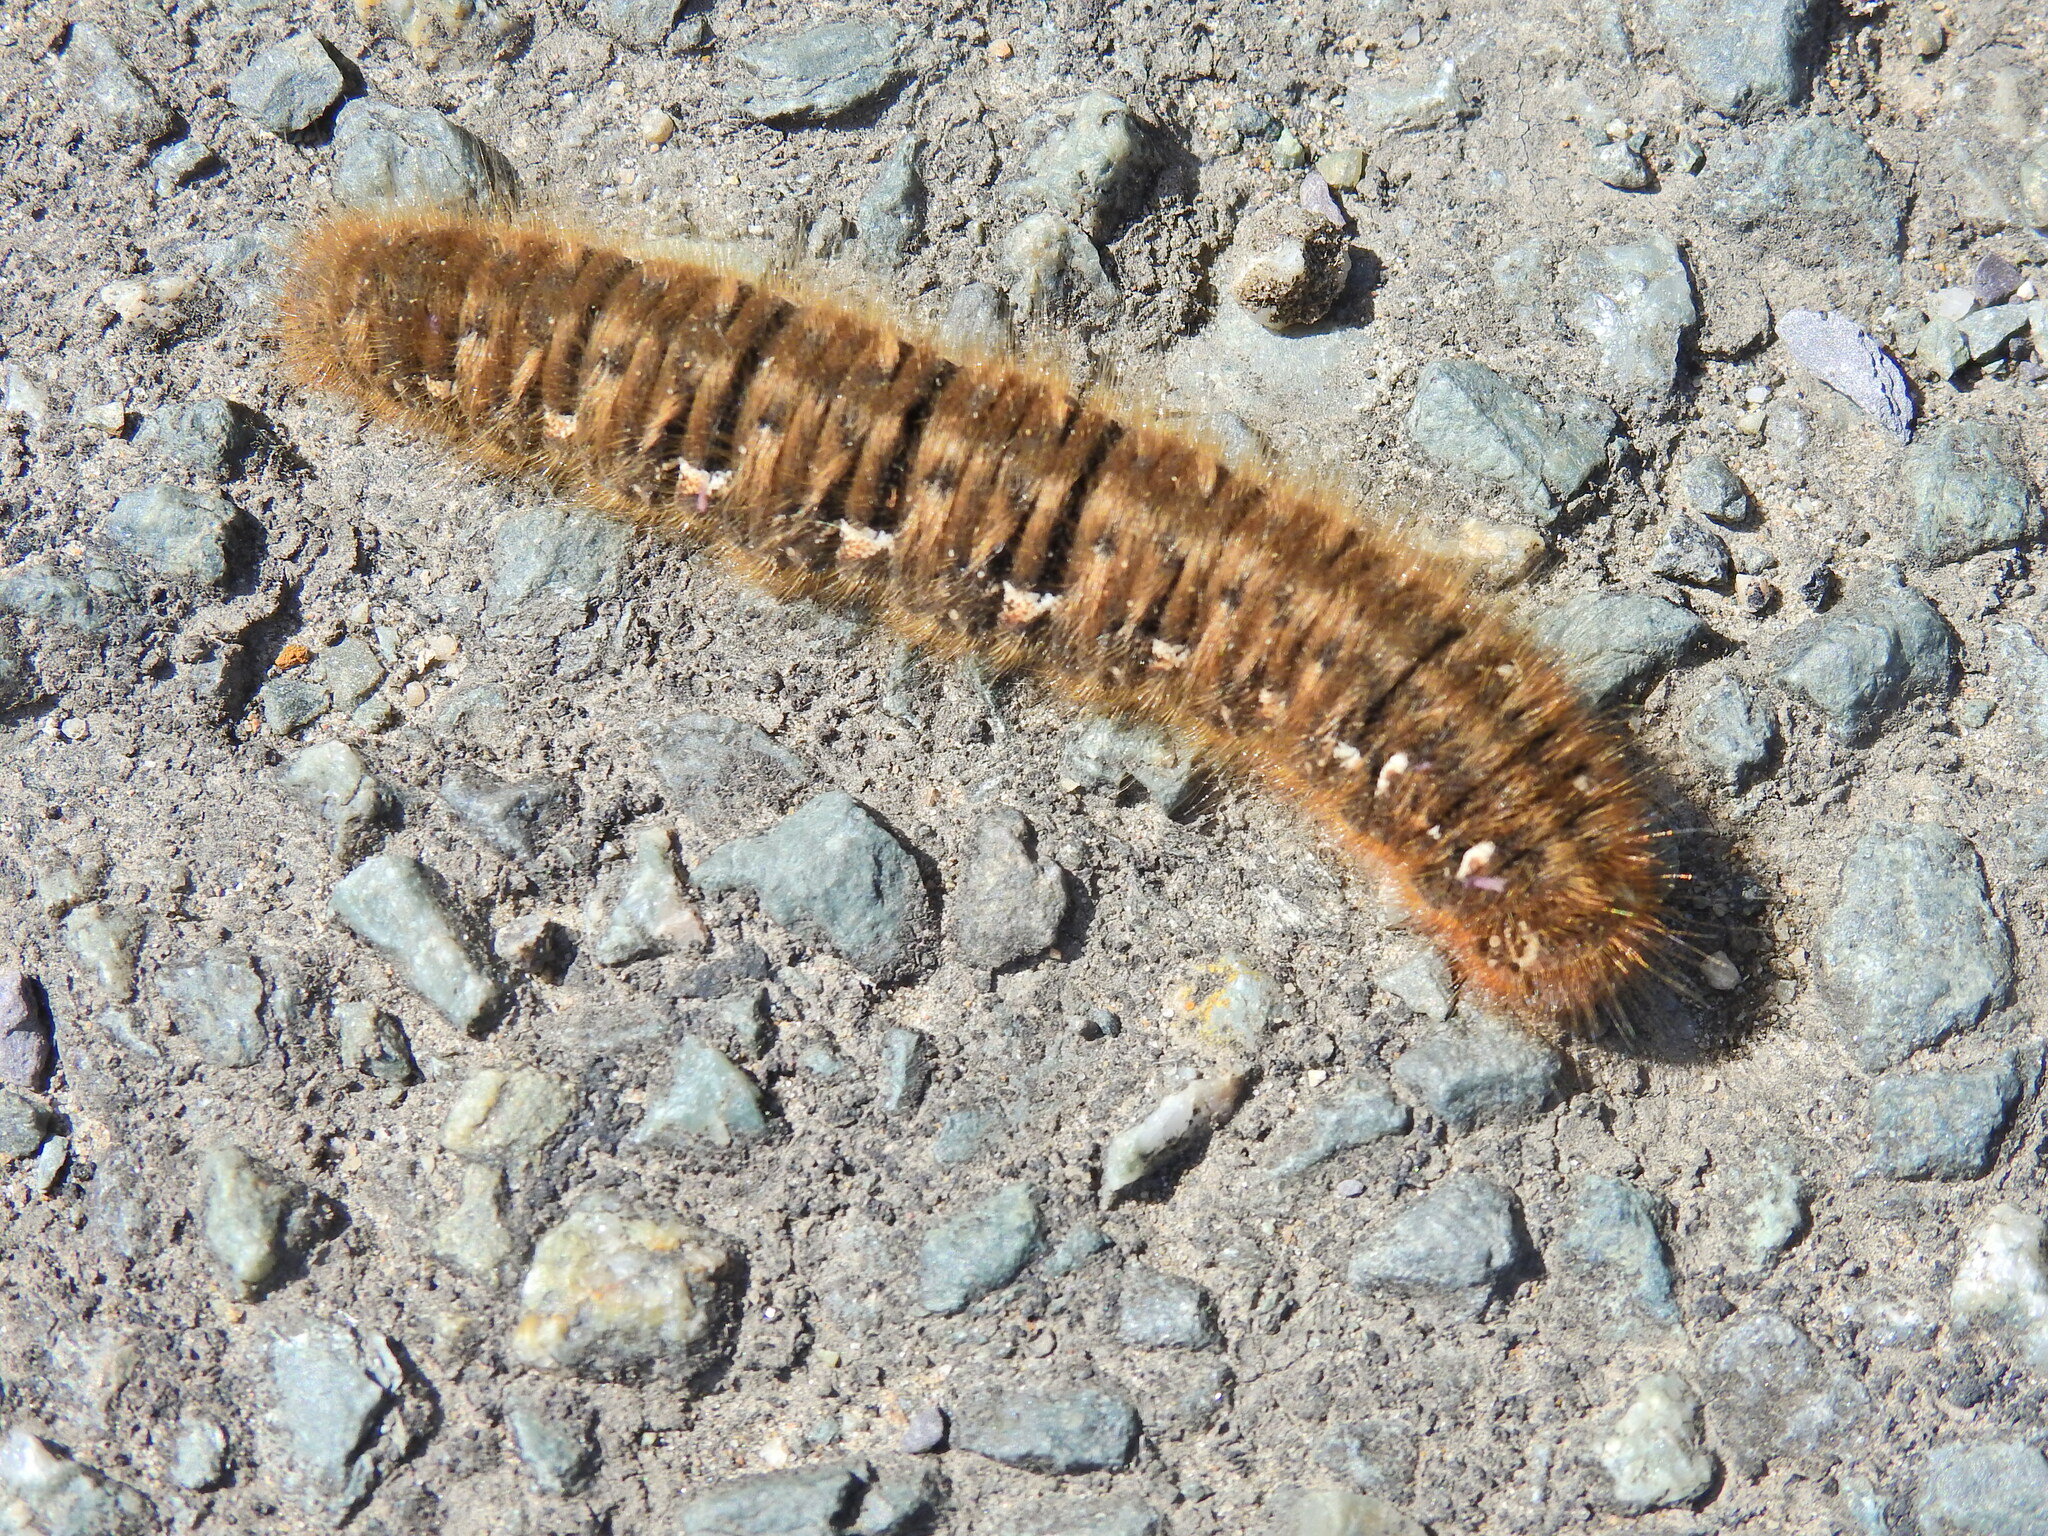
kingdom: Animalia
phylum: Arthropoda
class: Insecta
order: Lepidoptera
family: Lasiocampidae
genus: Lasiocampa
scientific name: Lasiocampa quercus
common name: Oak eggar
